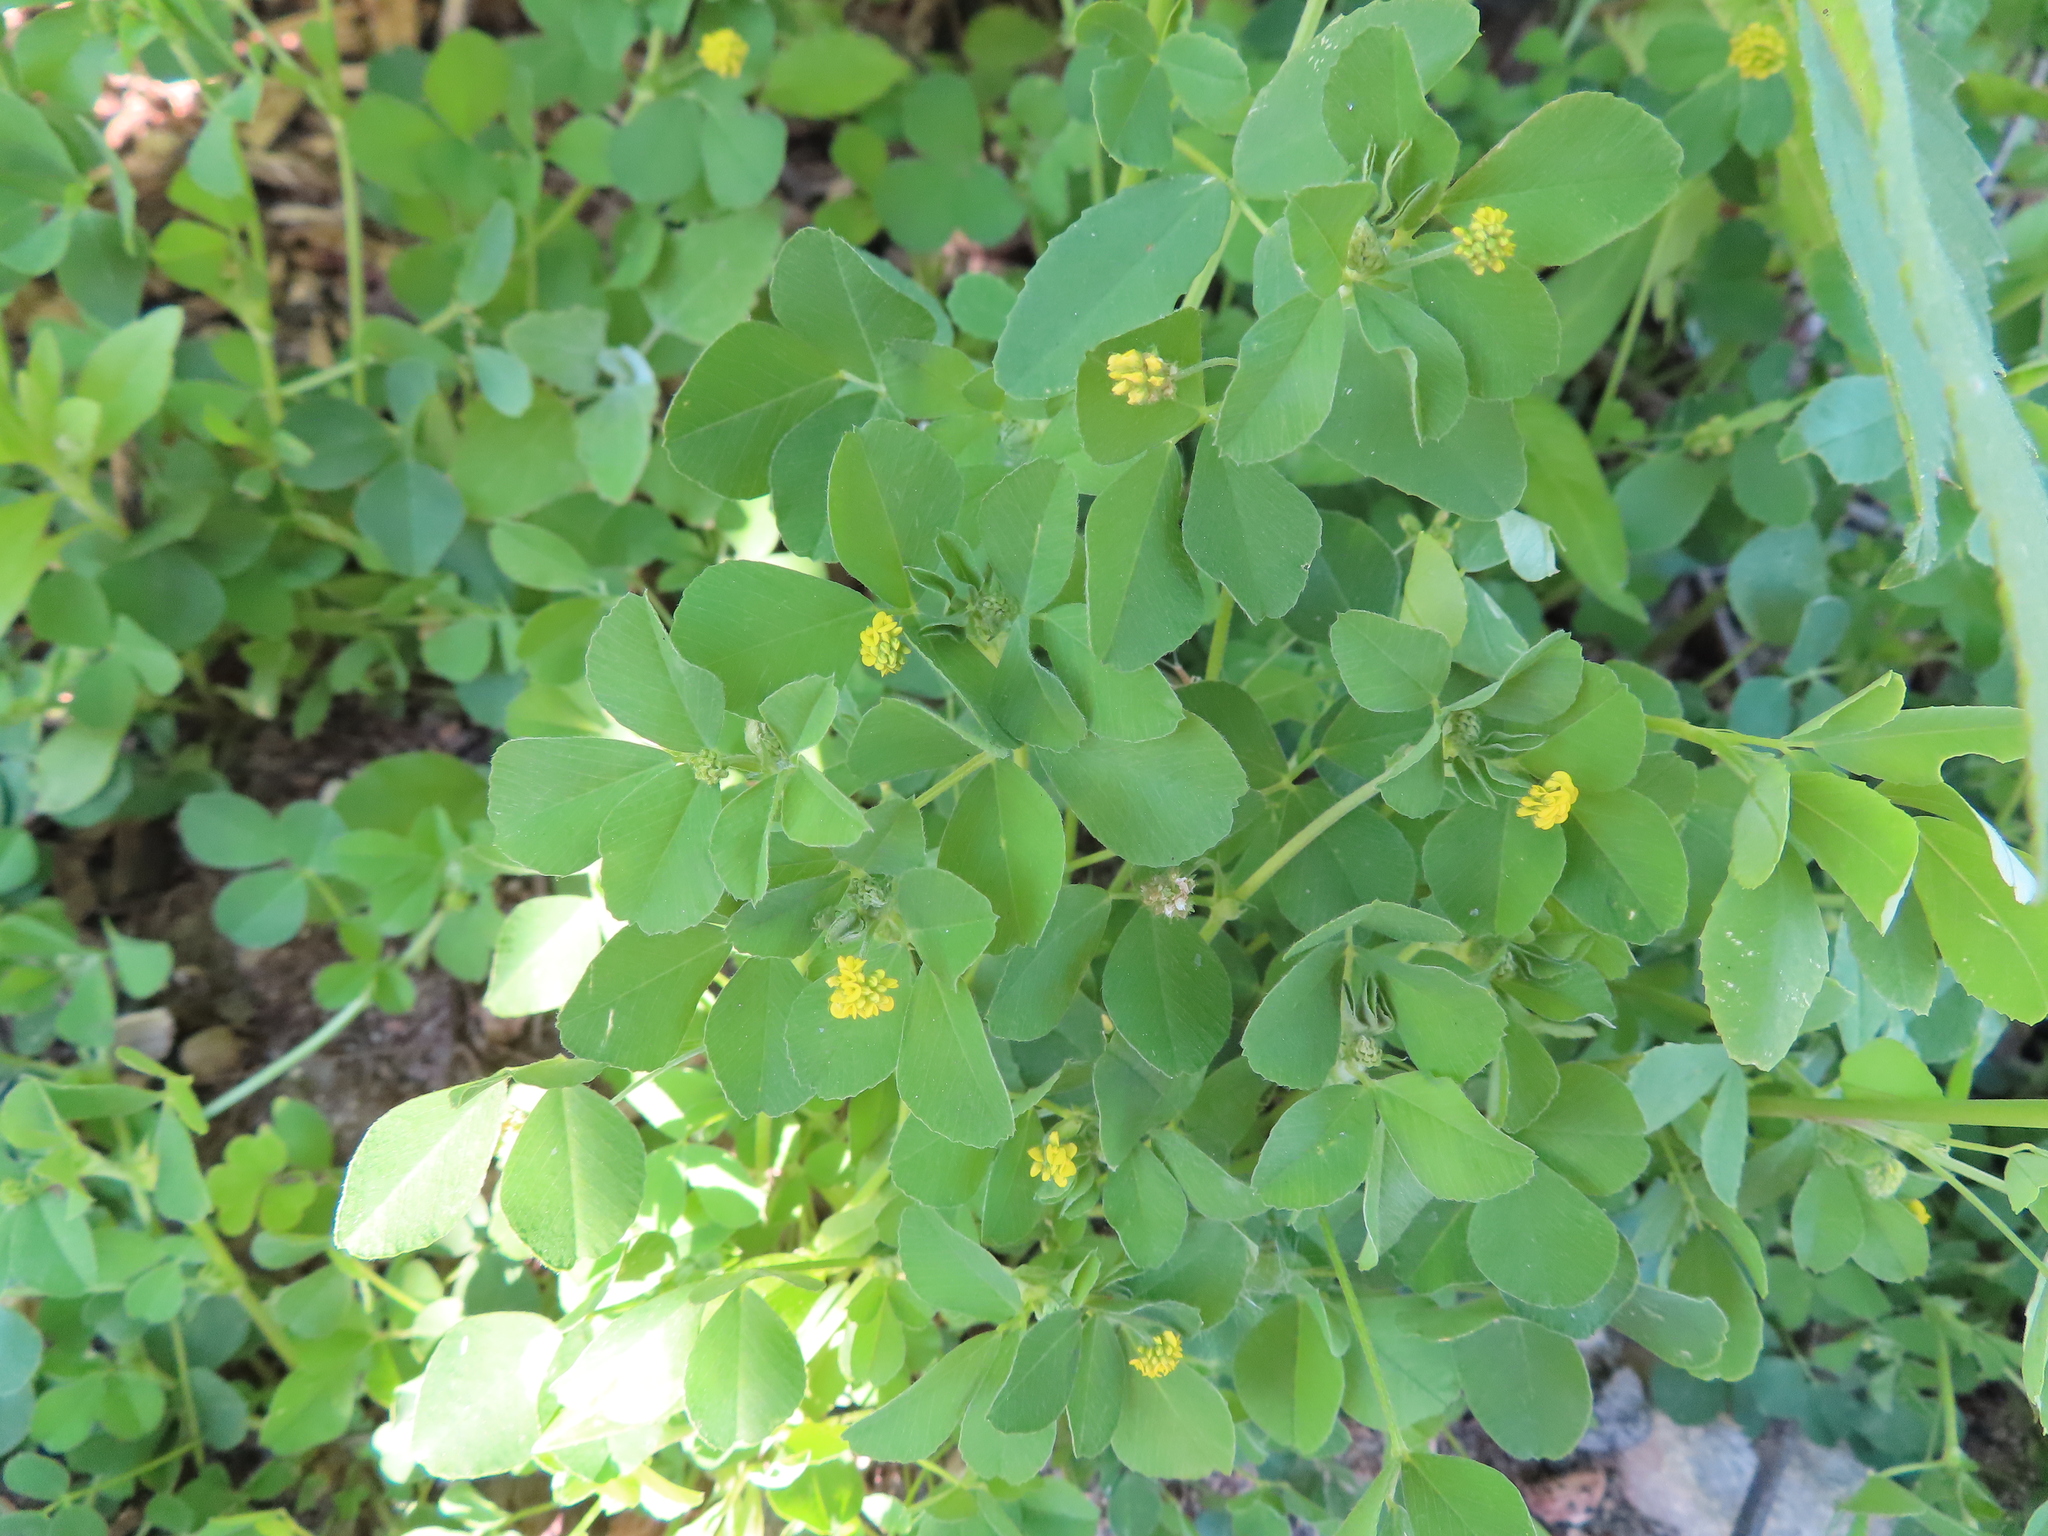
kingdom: Plantae
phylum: Tracheophyta
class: Magnoliopsida
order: Fabales
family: Fabaceae
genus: Medicago
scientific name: Medicago lupulina
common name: Black medick
